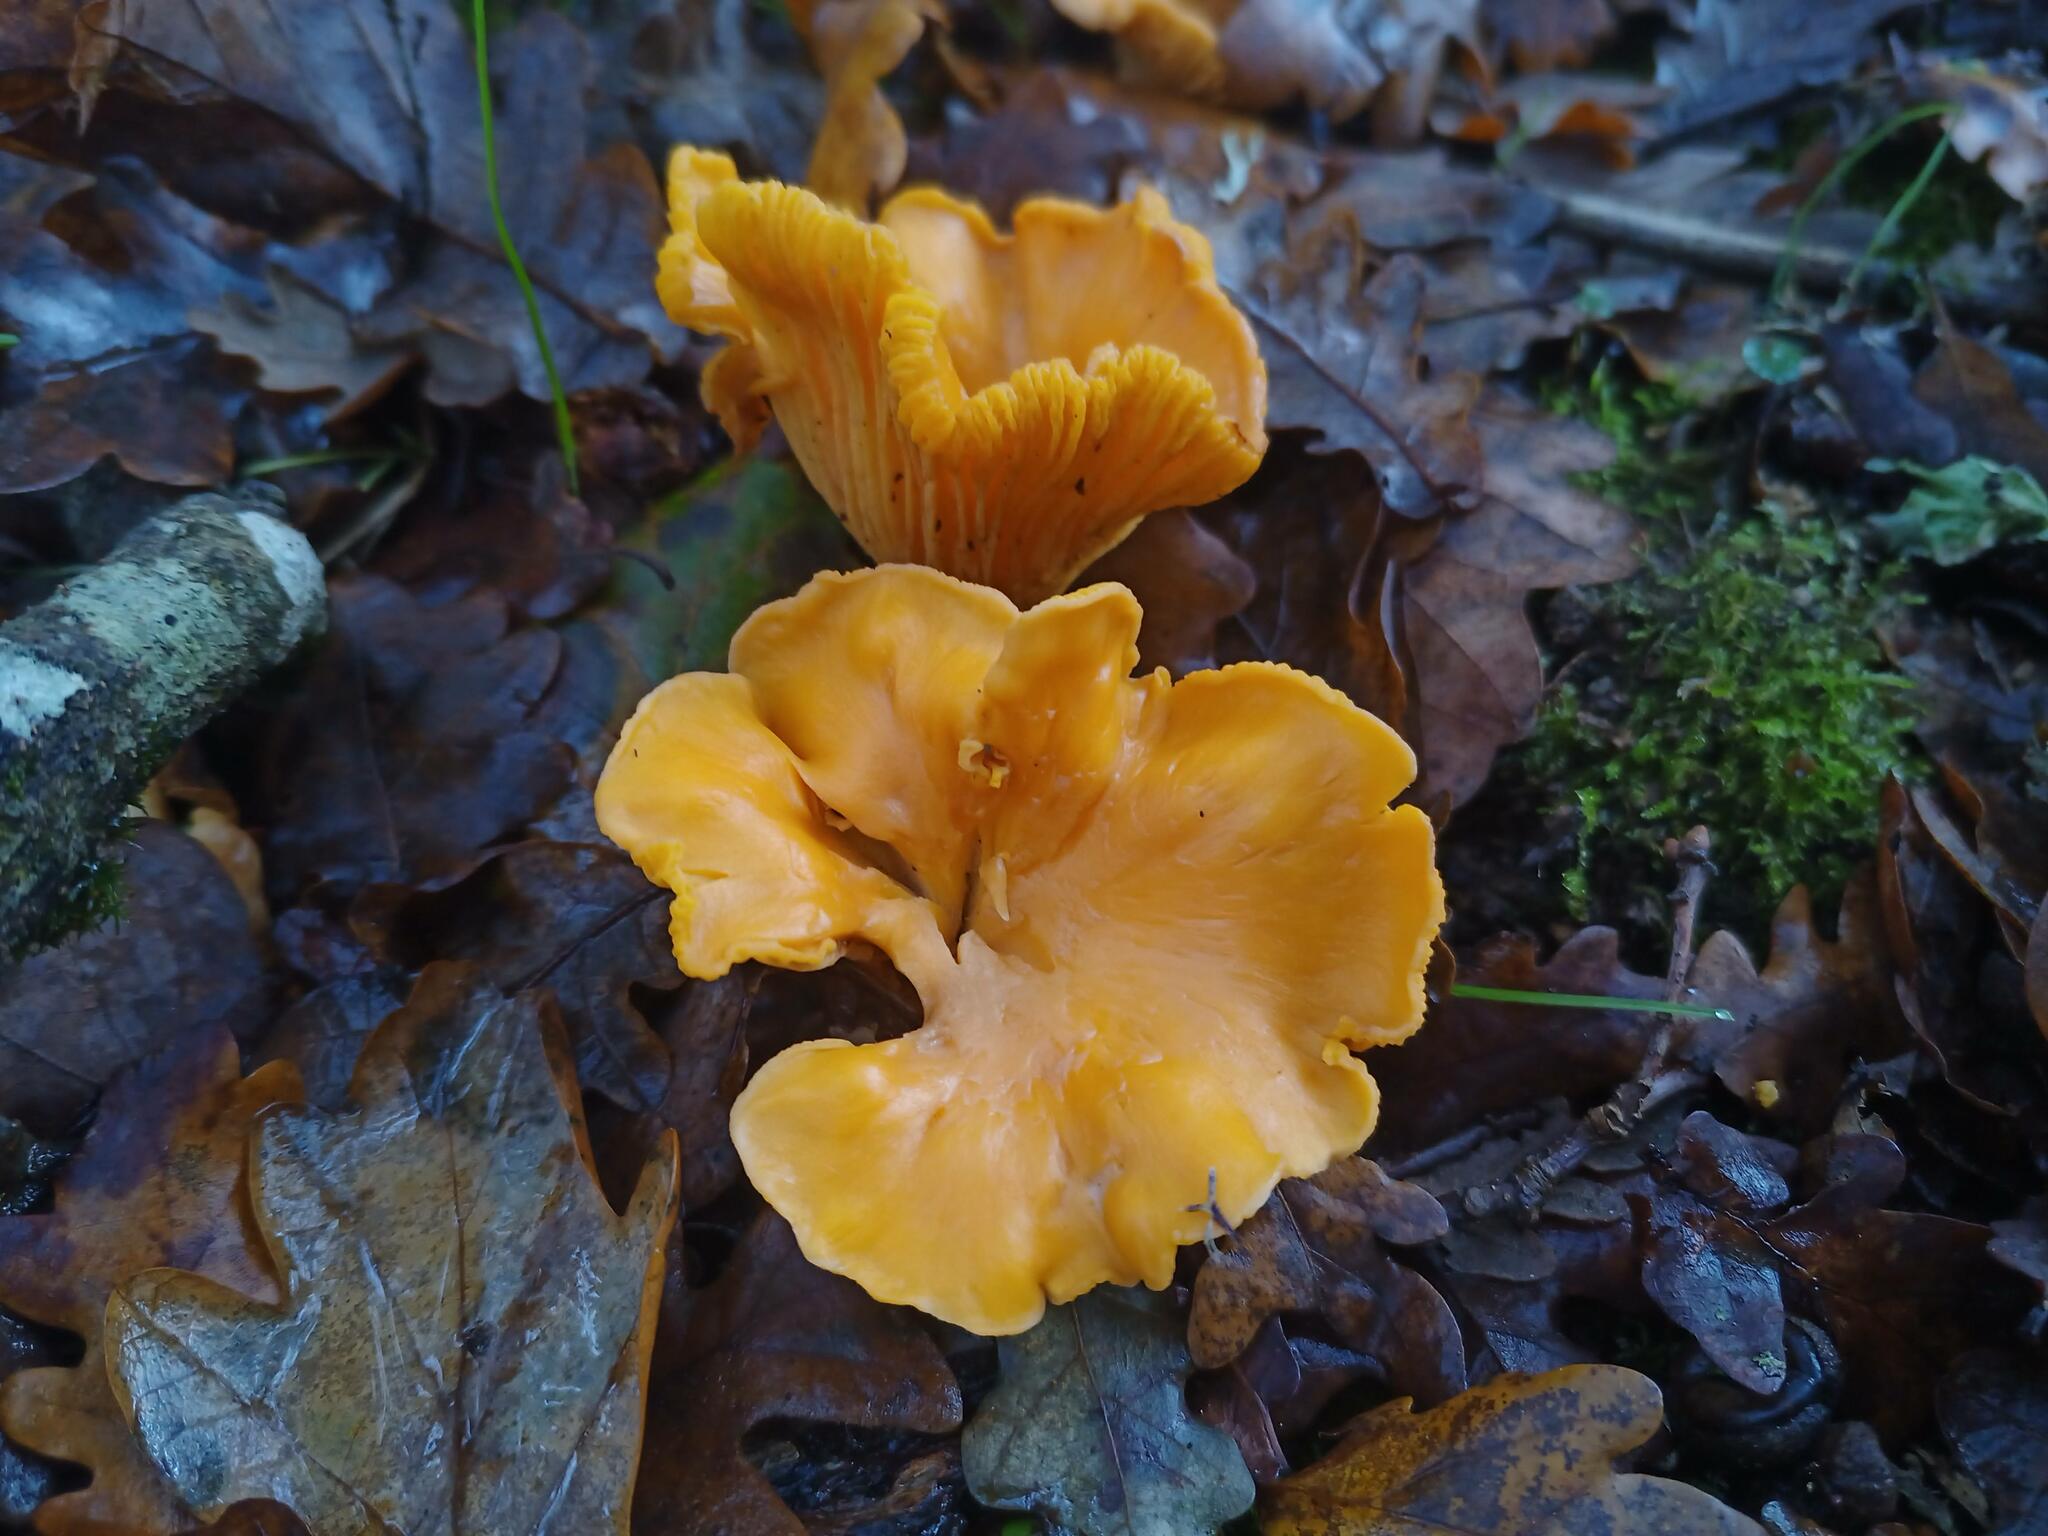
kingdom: Fungi
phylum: Basidiomycota
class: Agaricomycetes
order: Cantharellales
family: Hydnaceae
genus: Cantharellus
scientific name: Cantharellus cibarius
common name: Chanterelle
